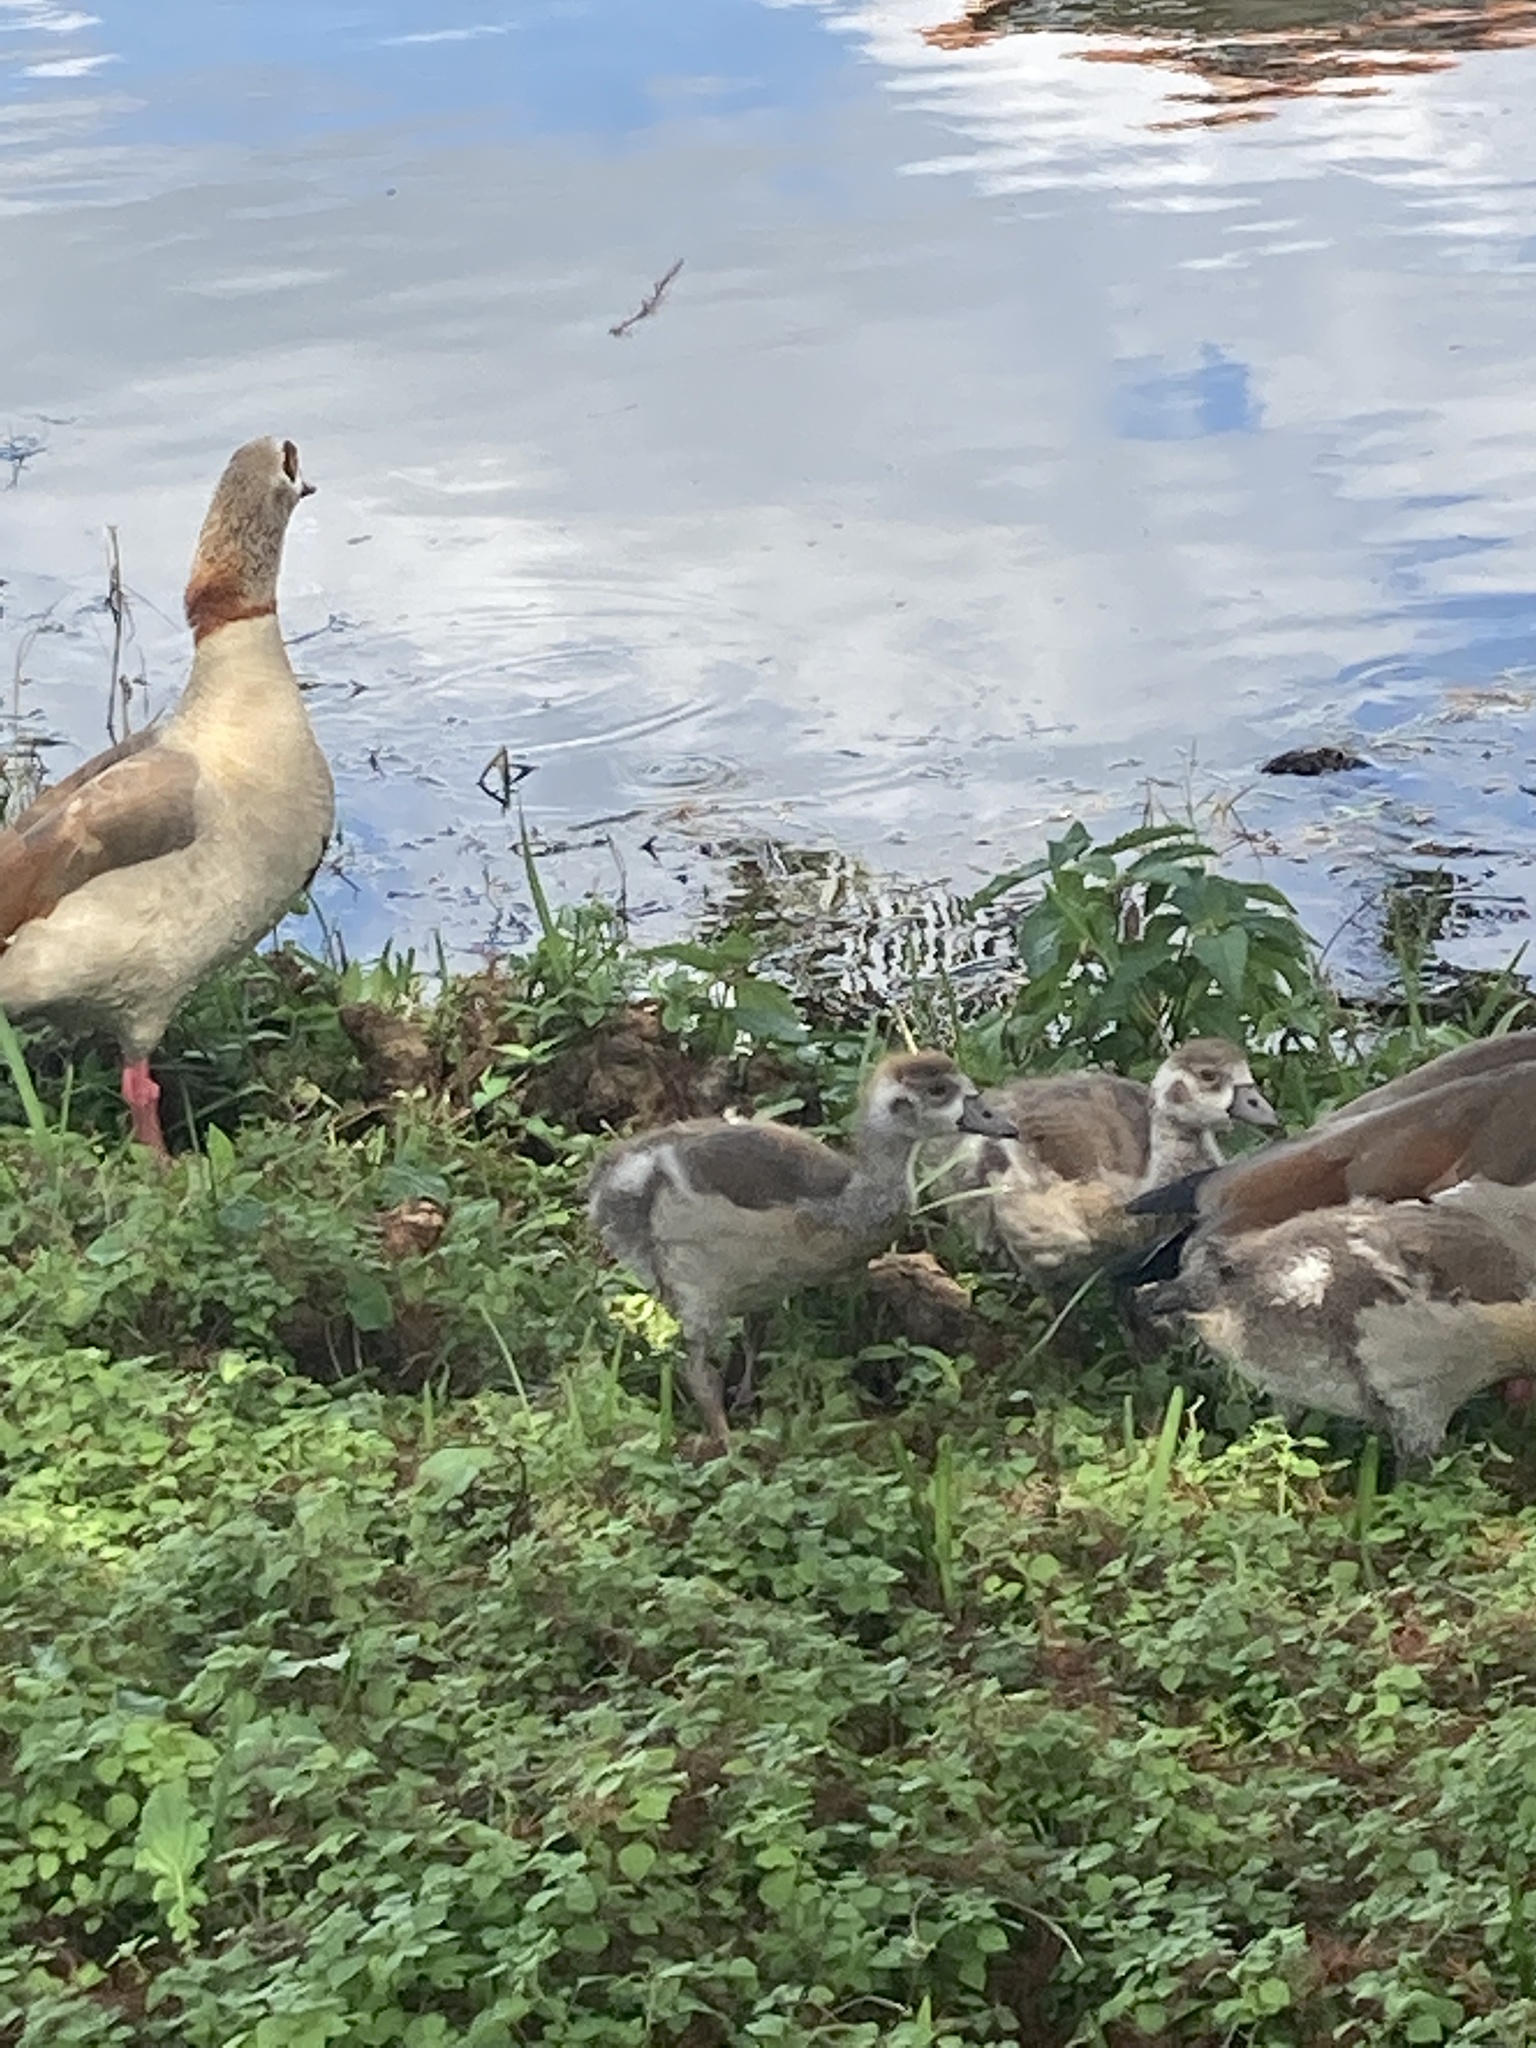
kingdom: Animalia
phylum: Chordata
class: Aves
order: Anseriformes
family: Anatidae
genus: Alopochen
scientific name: Alopochen aegyptiaca
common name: Egyptian goose
